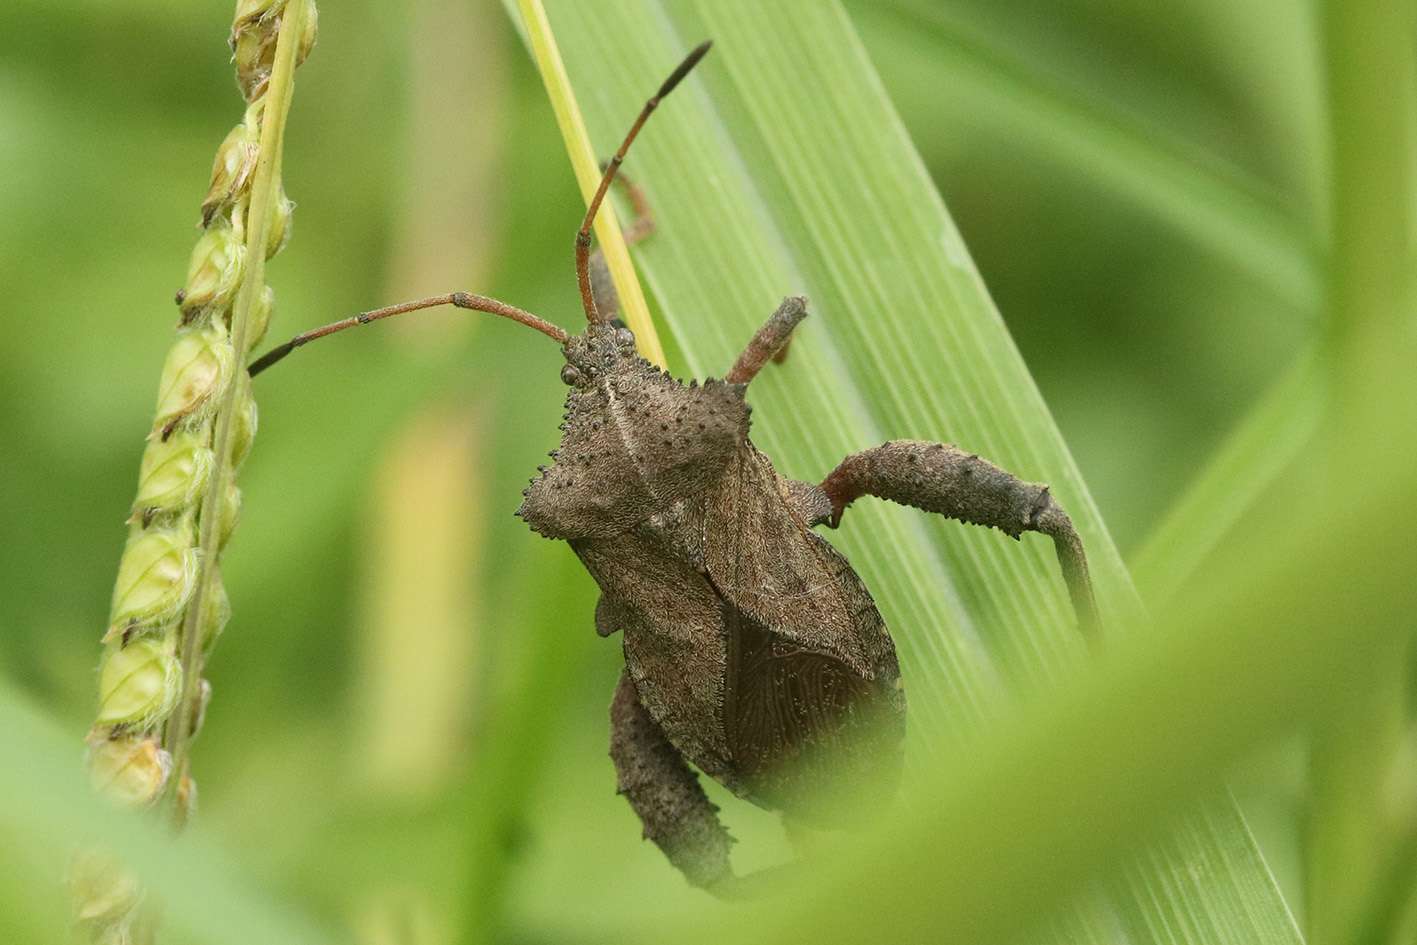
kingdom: Animalia
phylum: Arthropoda
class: Insecta
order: Hemiptera
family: Coreidae
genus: Camptischium
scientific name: Camptischium clavipes
